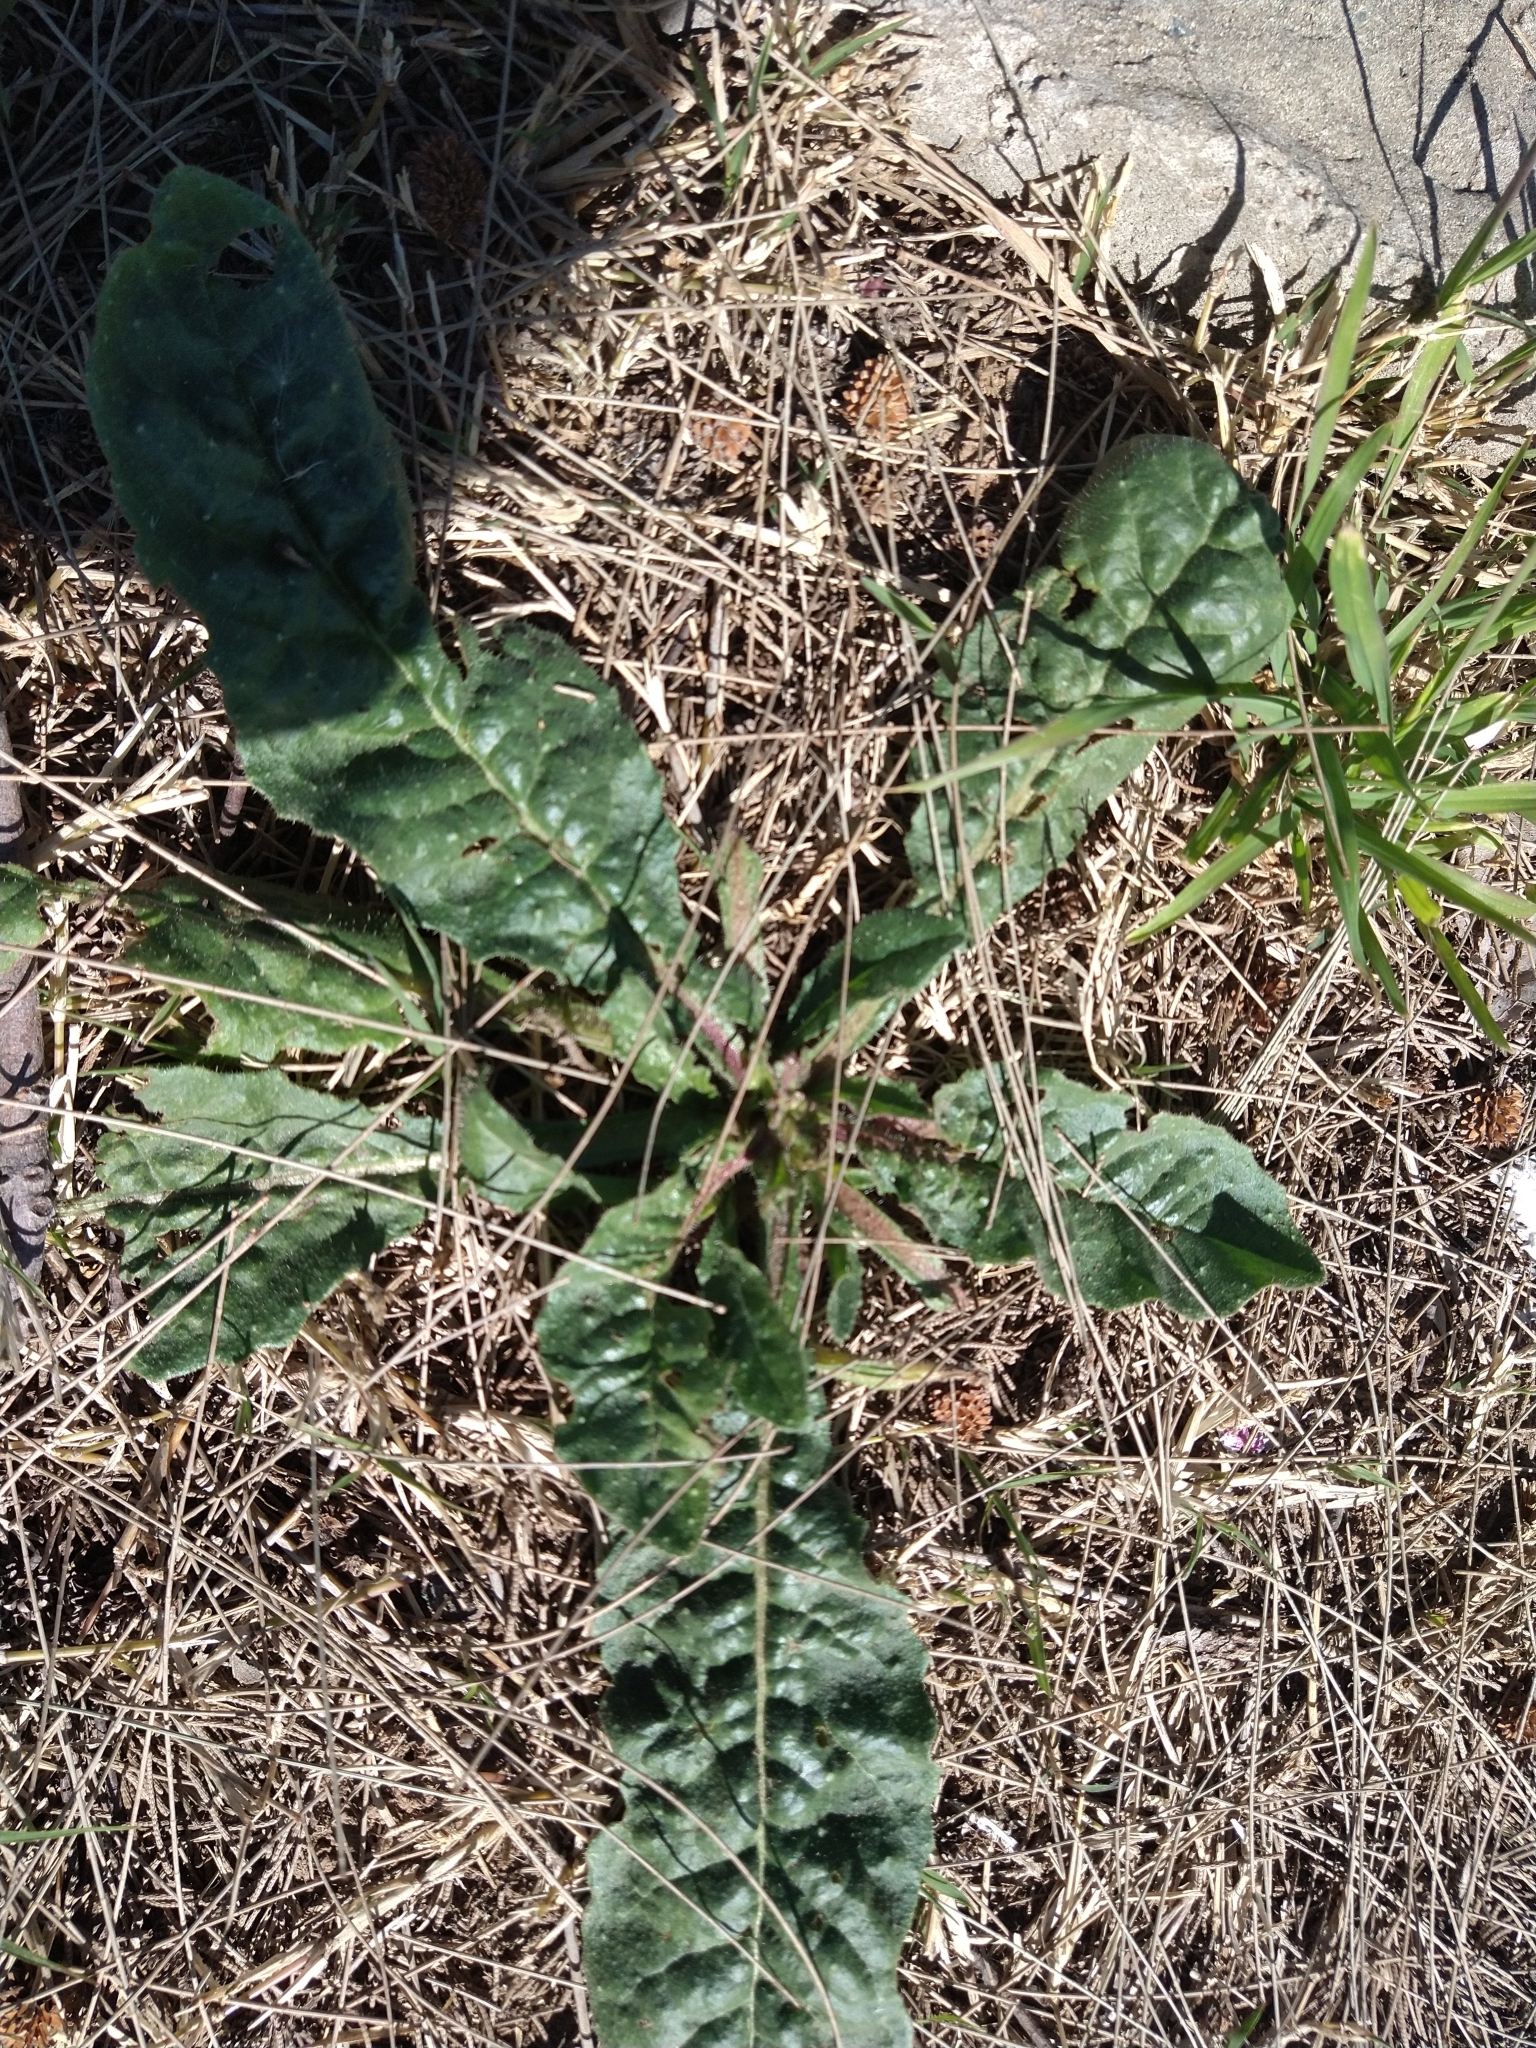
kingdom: Plantae
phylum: Tracheophyta
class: Magnoliopsida
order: Solanales
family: Solanaceae
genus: Nicotiana
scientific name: Nicotiana longiflora
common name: Long-flowered tobacco
